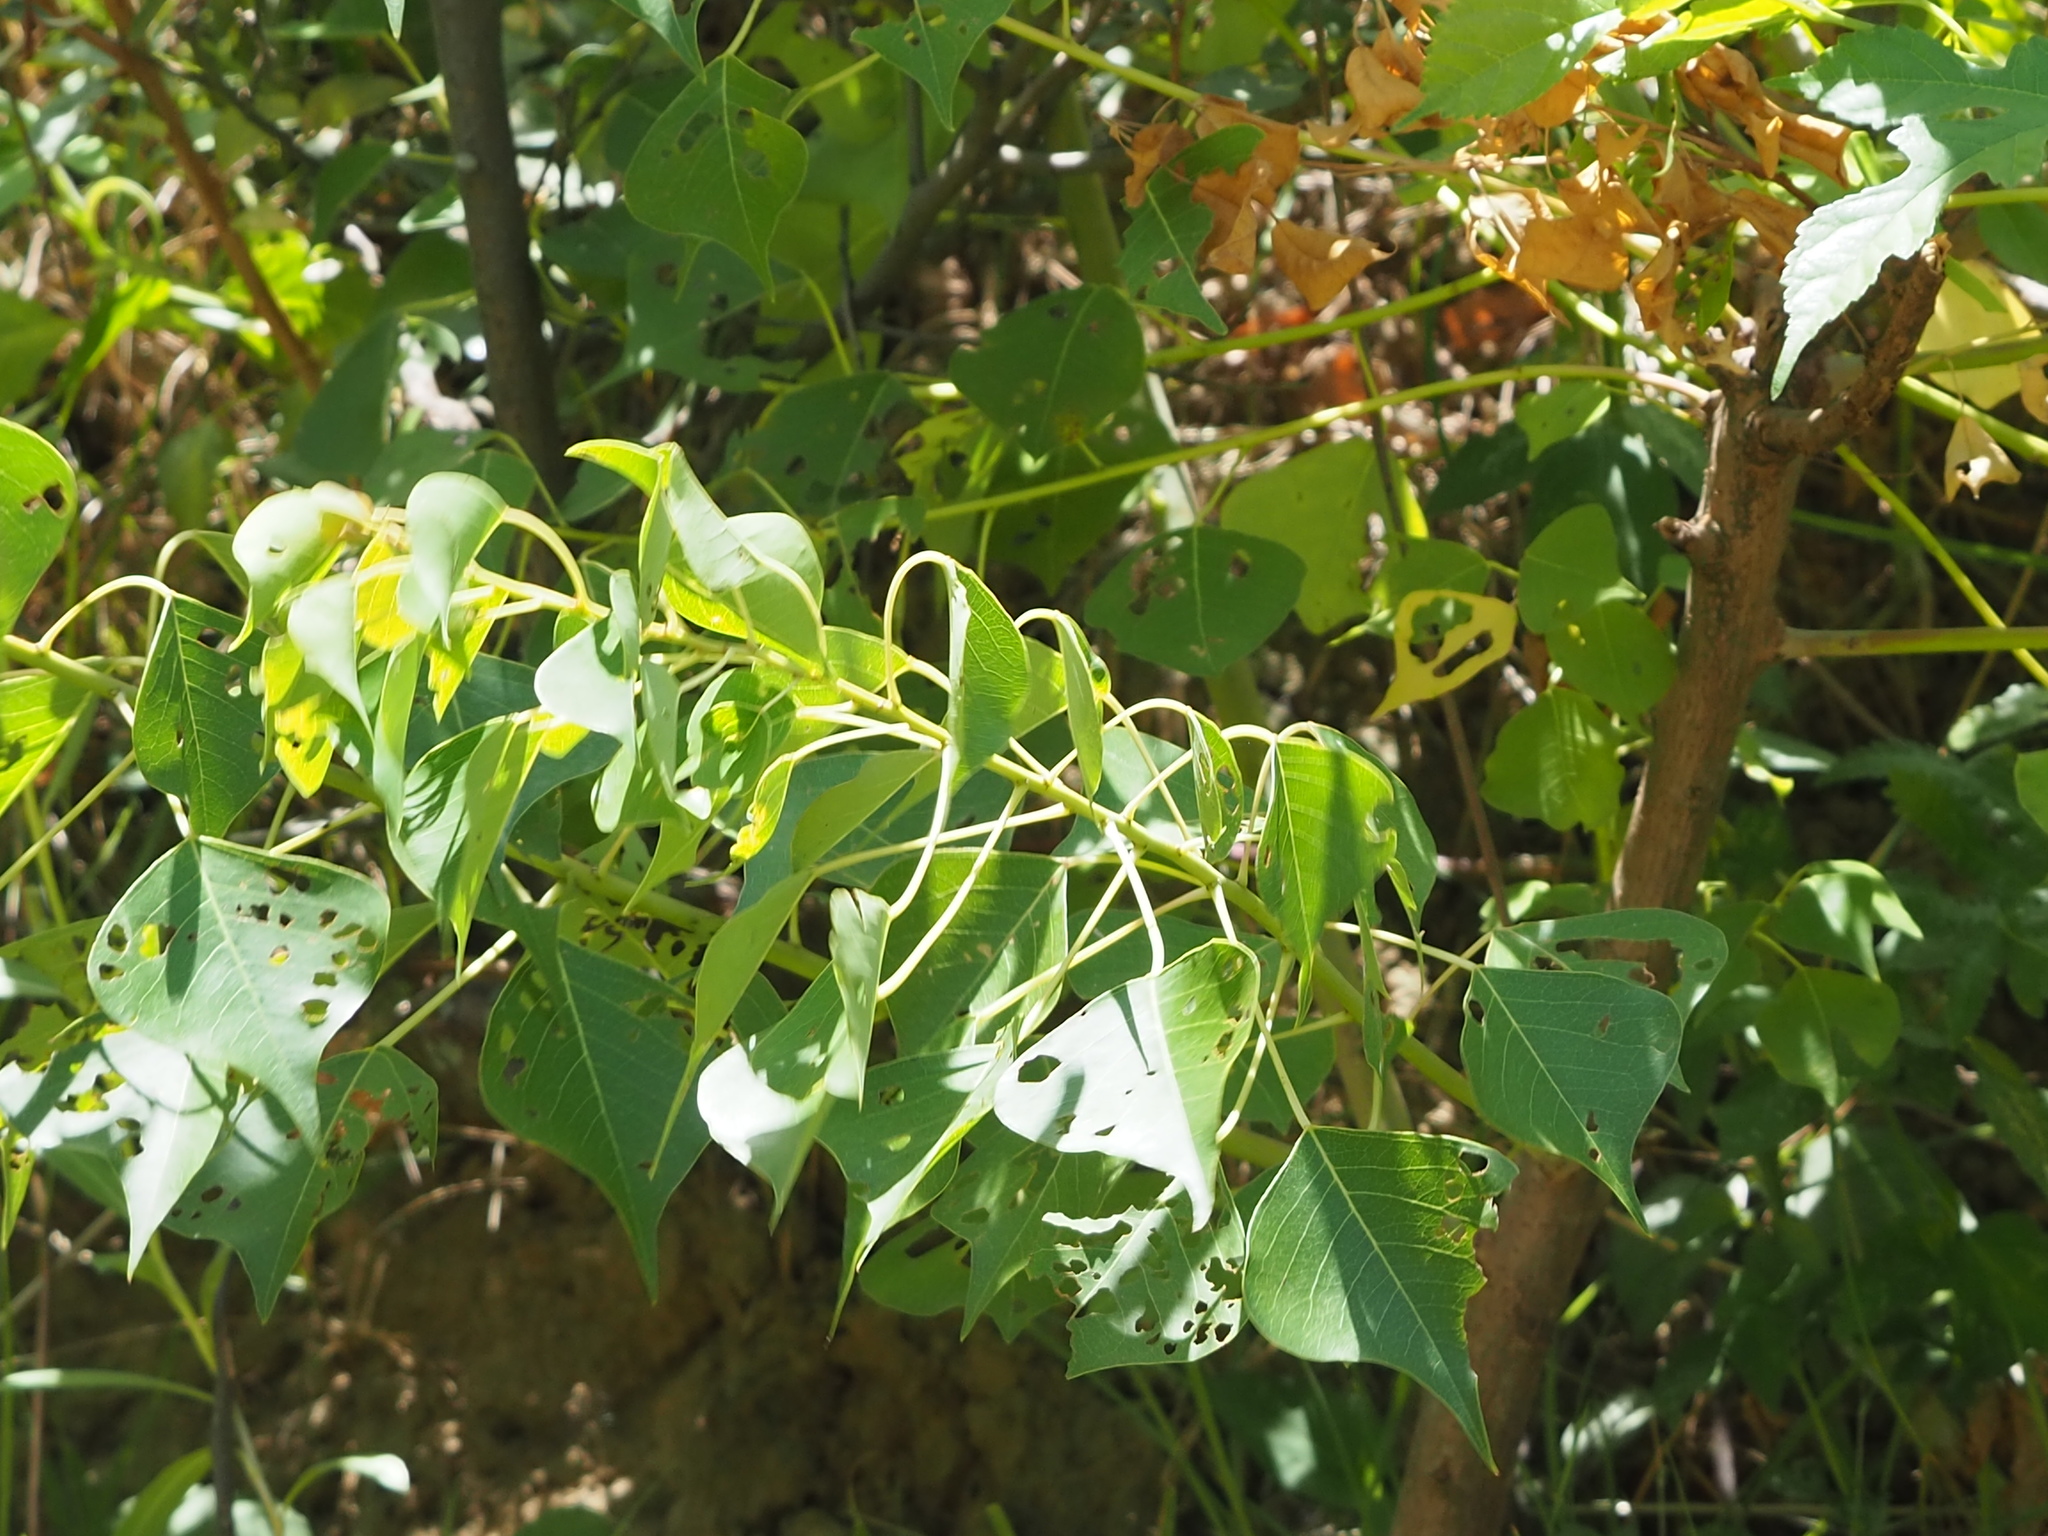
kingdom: Plantae
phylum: Tracheophyta
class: Magnoliopsida
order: Malpighiales
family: Euphorbiaceae
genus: Triadica
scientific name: Triadica sebifera
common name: Chinese tallow
